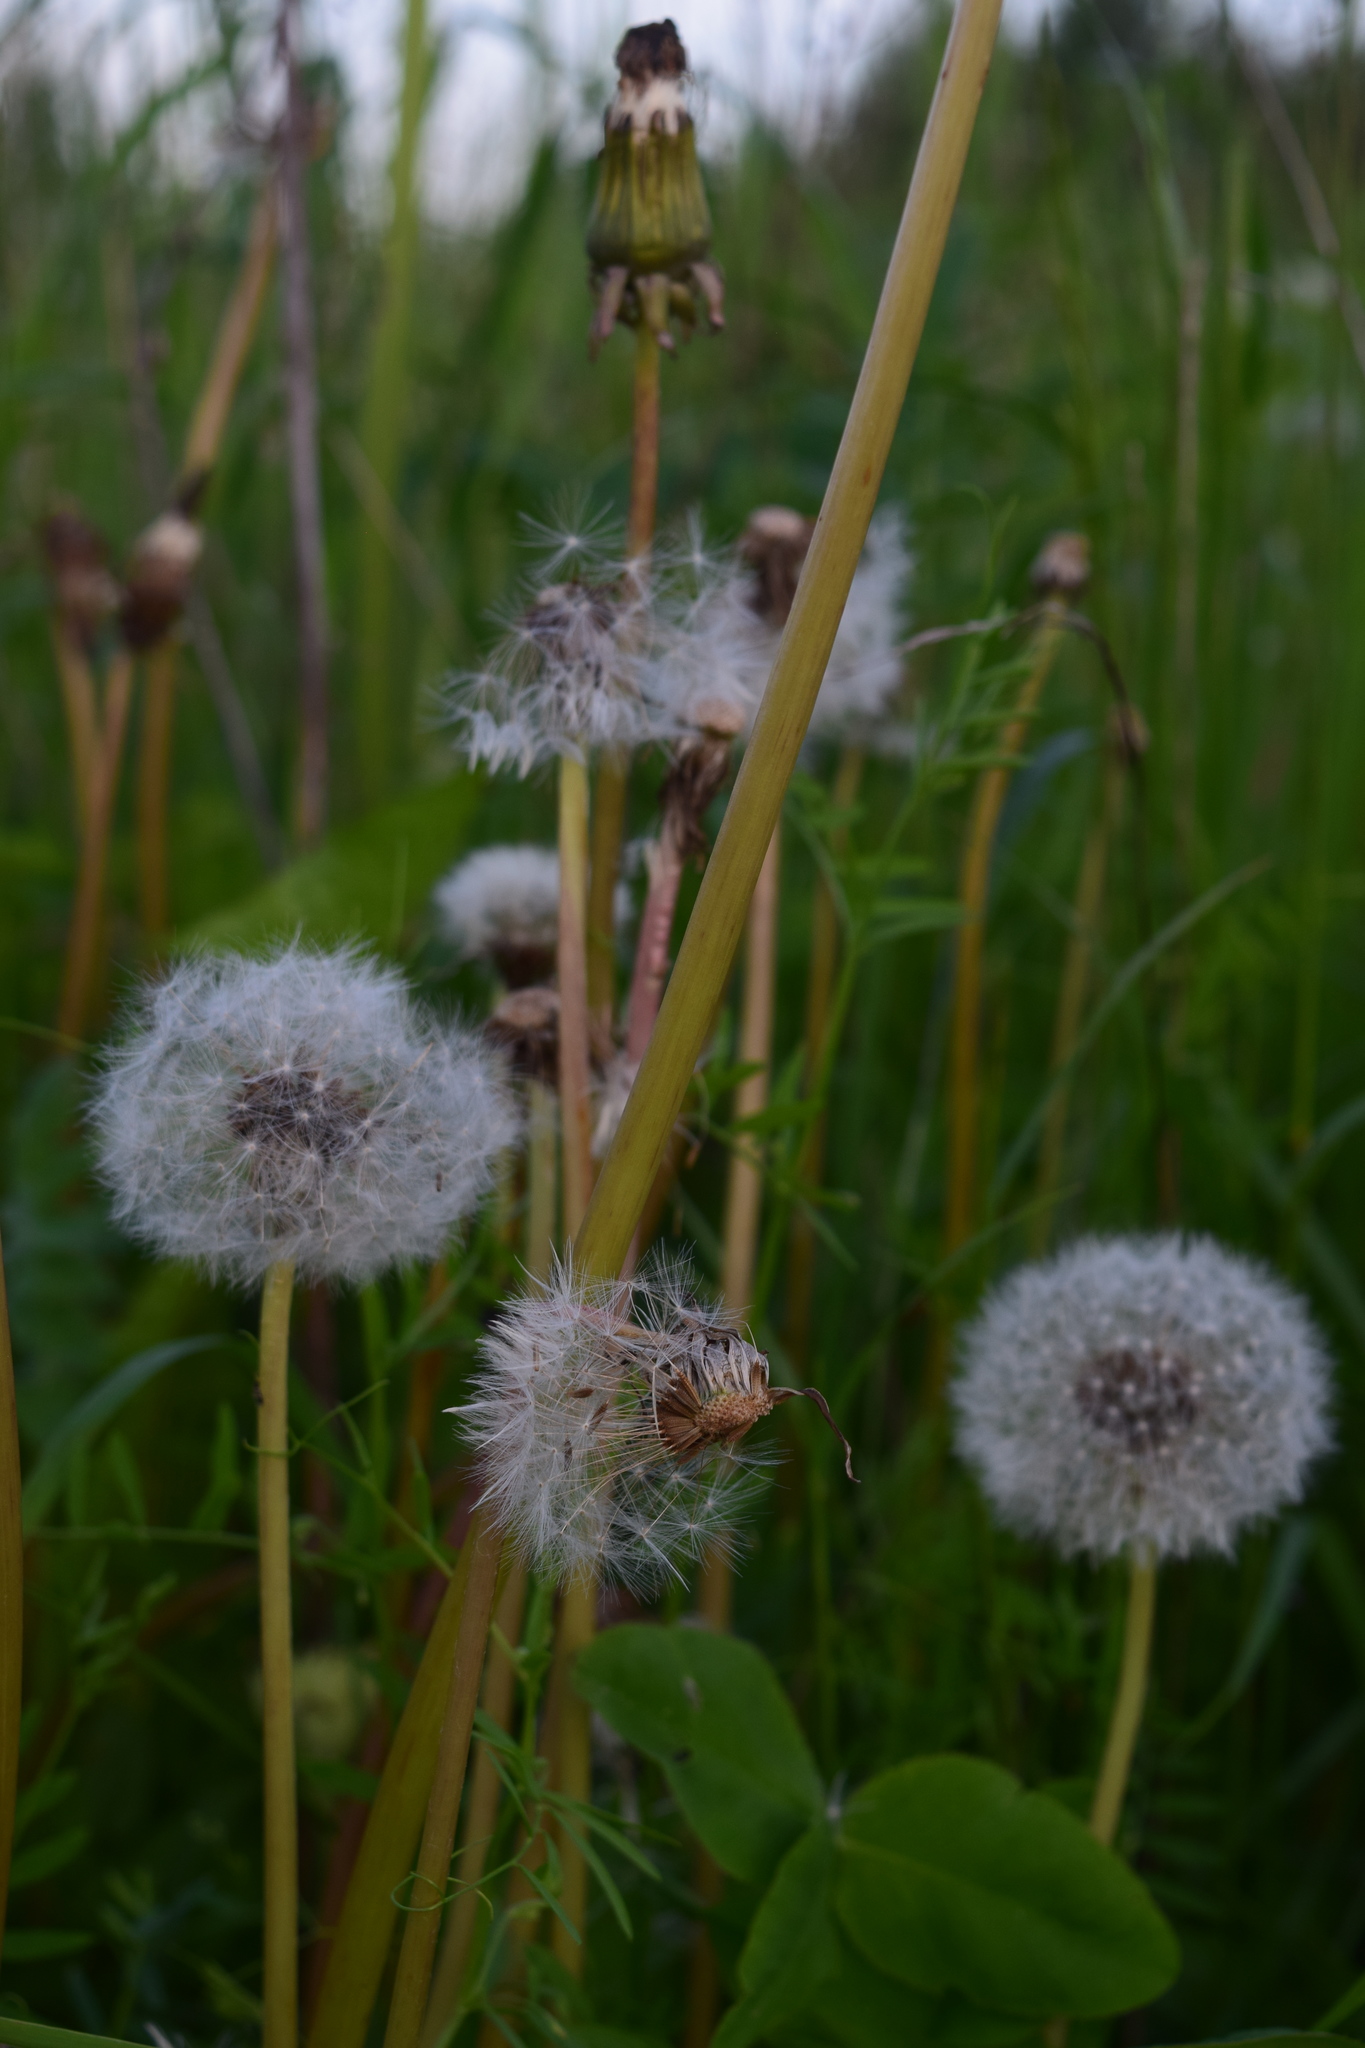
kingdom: Plantae
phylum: Tracheophyta
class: Magnoliopsida
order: Asterales
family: Asteraceae
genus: Taraxacum
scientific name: Taraxacum officinale
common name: Common dandelion
